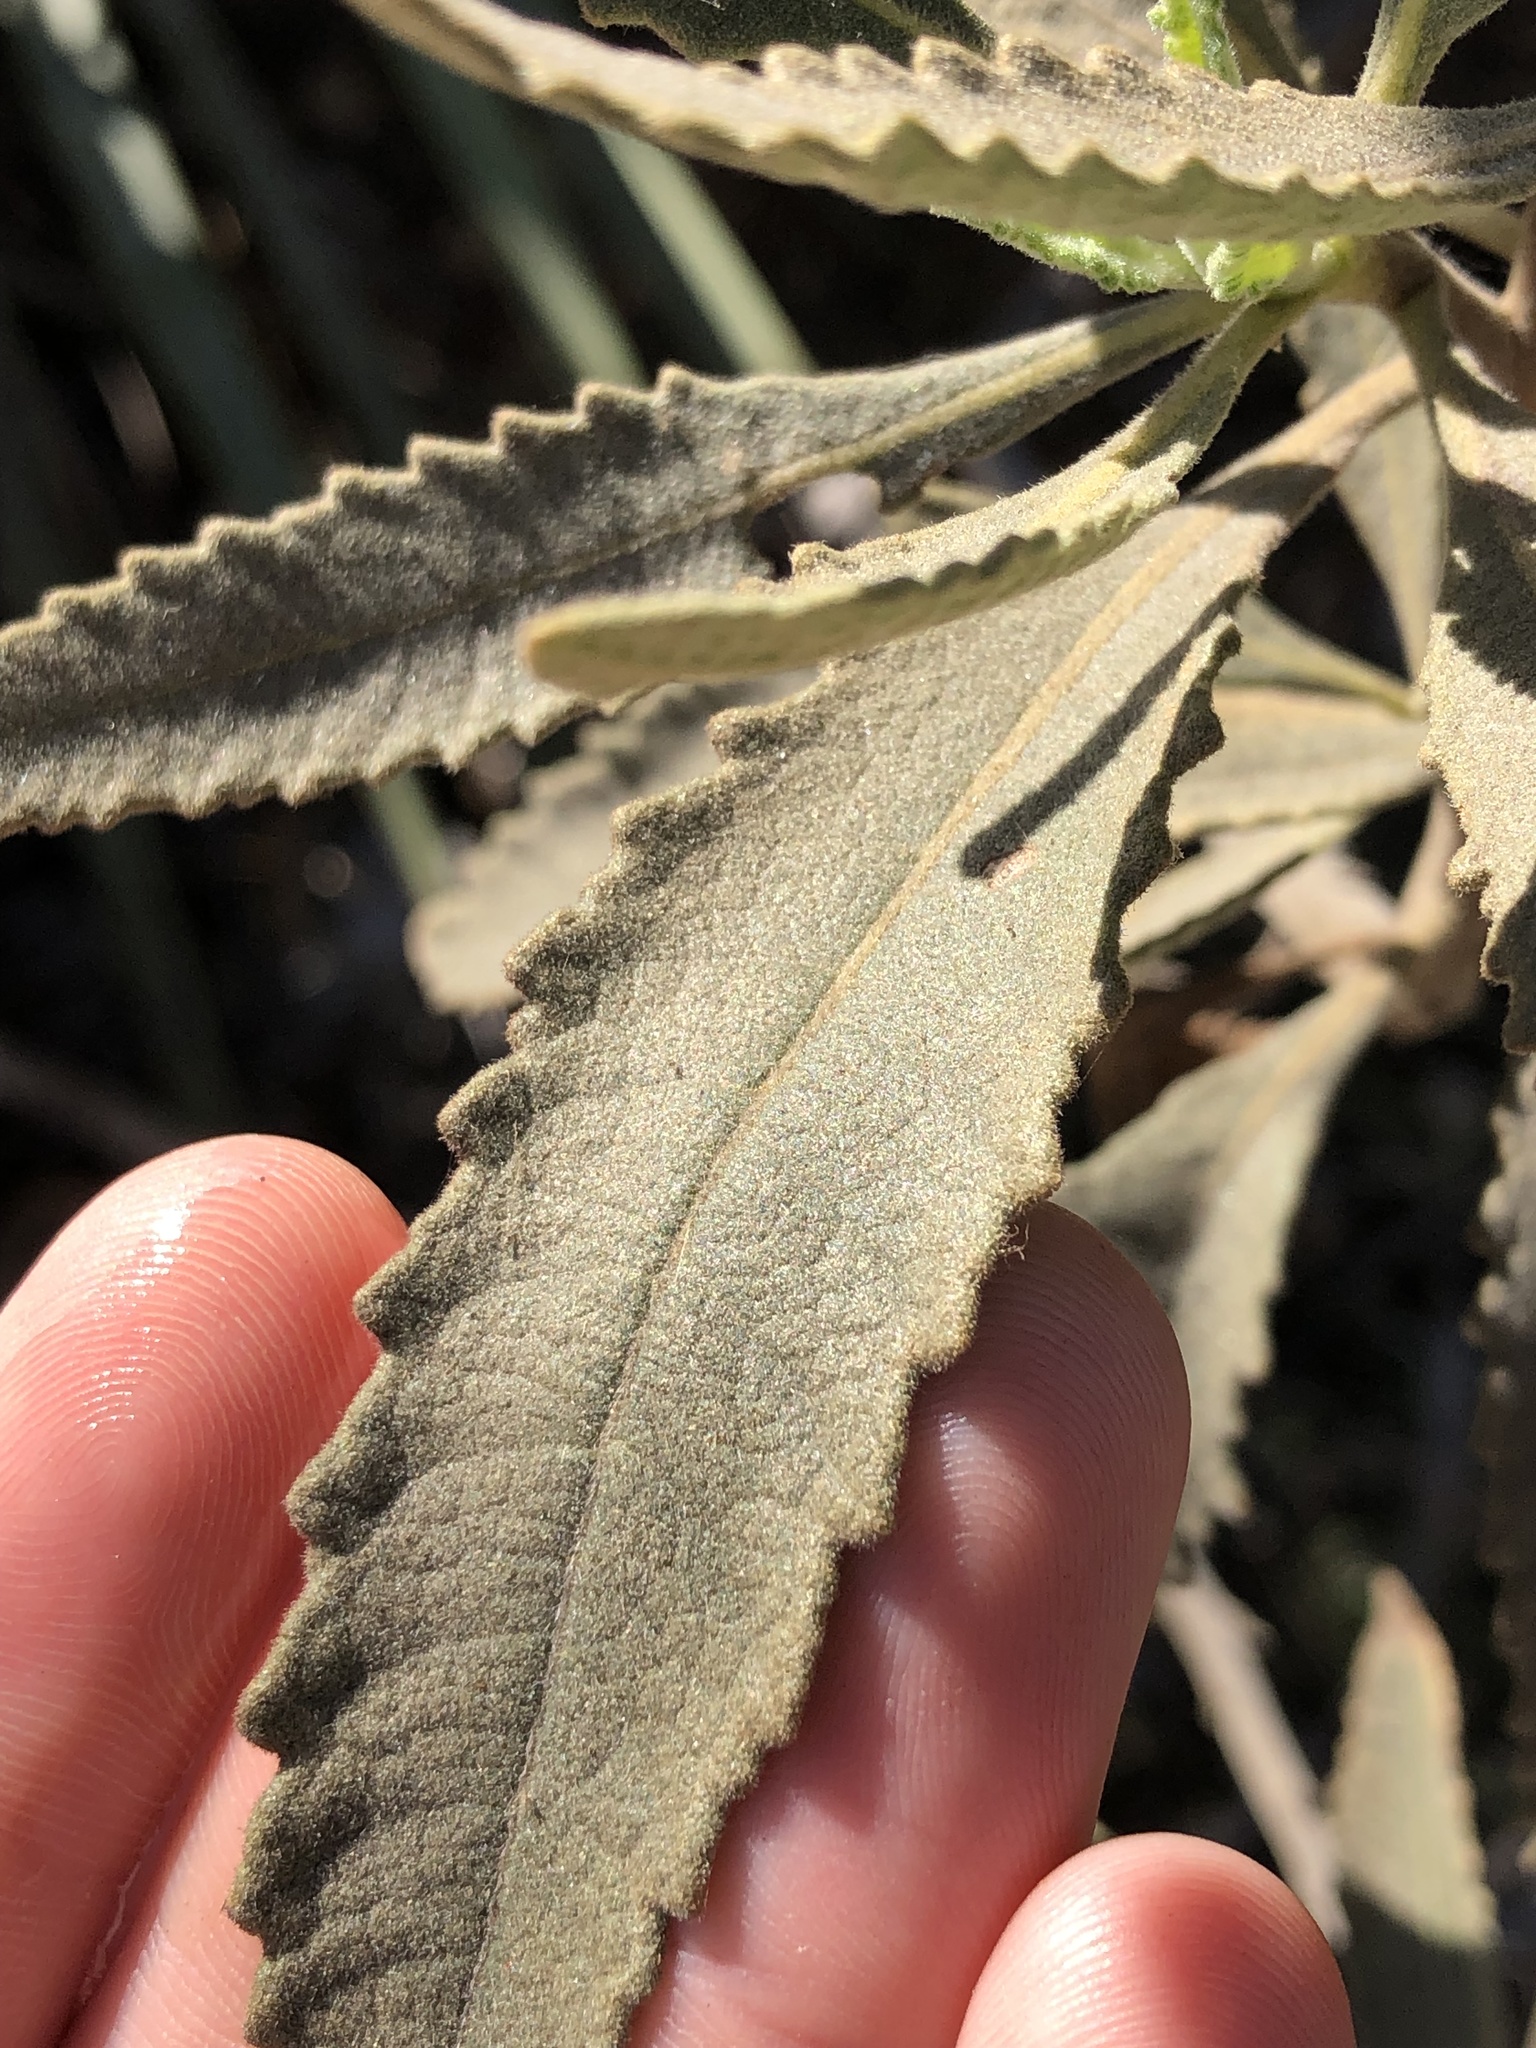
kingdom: Plantae
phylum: Tracheophyta
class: Magnoliopsida
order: Boraginales
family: Namaceae
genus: Eriodictyon
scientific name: Eriodictyon crassifolium
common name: Thick-leaf yerba-santa
